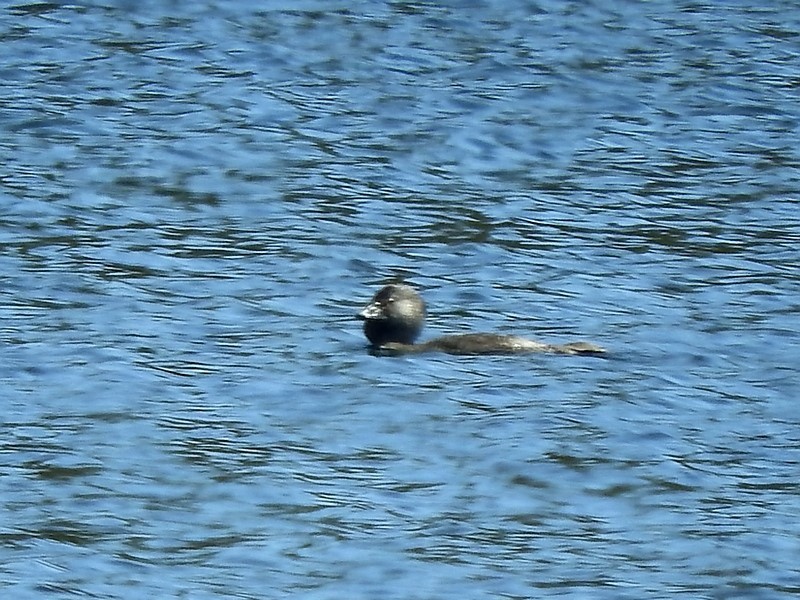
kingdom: Animalia
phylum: Chordata
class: Aves
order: Anseriformes
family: Anatidae
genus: Biziura
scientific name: Biziura lobata
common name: Musk duck
